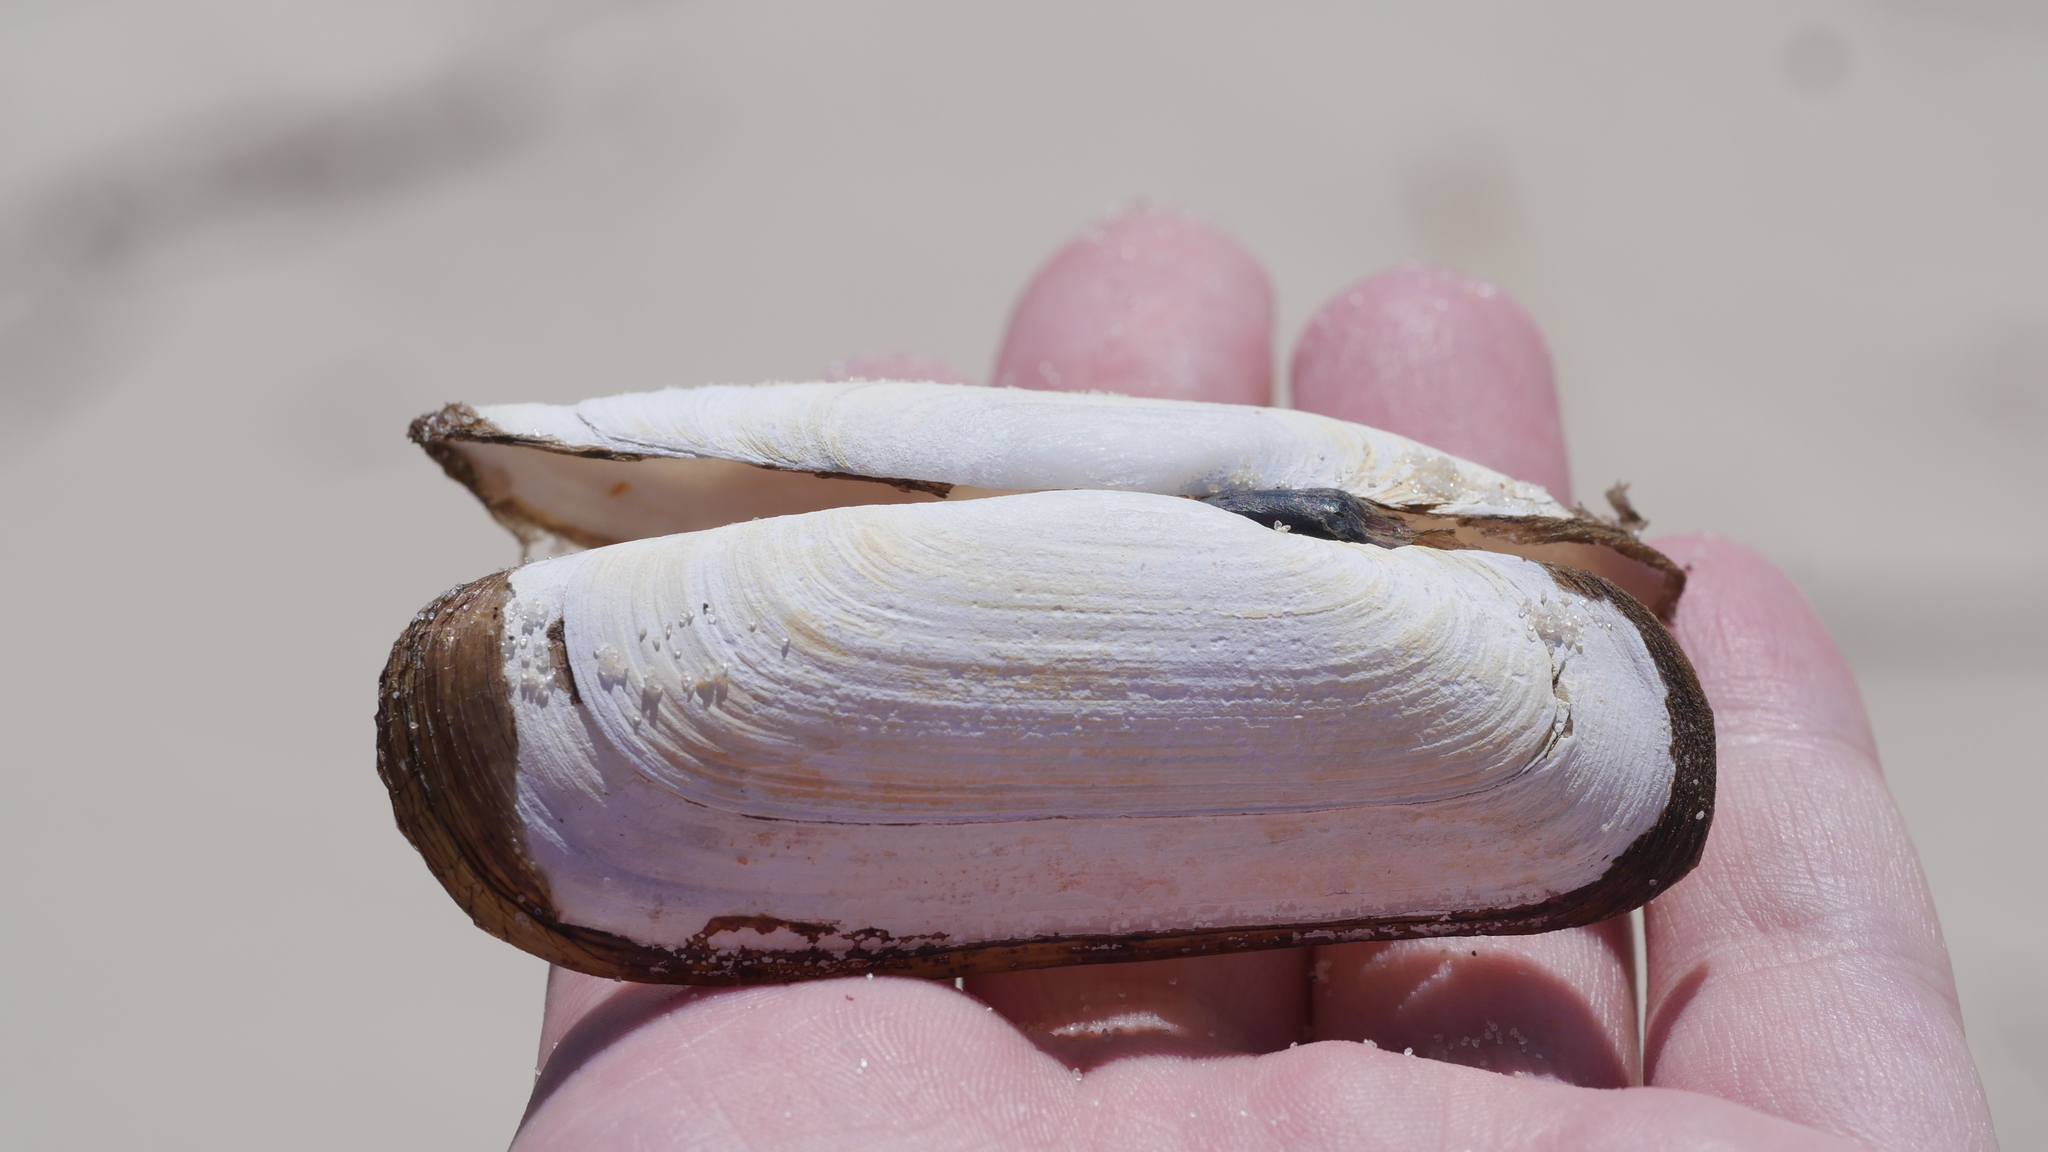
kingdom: Animalia
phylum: Mollusca
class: Bivalvia
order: Cardiida
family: Solecurtidae
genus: Tagelus
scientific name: Tagelus plebeius
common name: Stout tagelus
